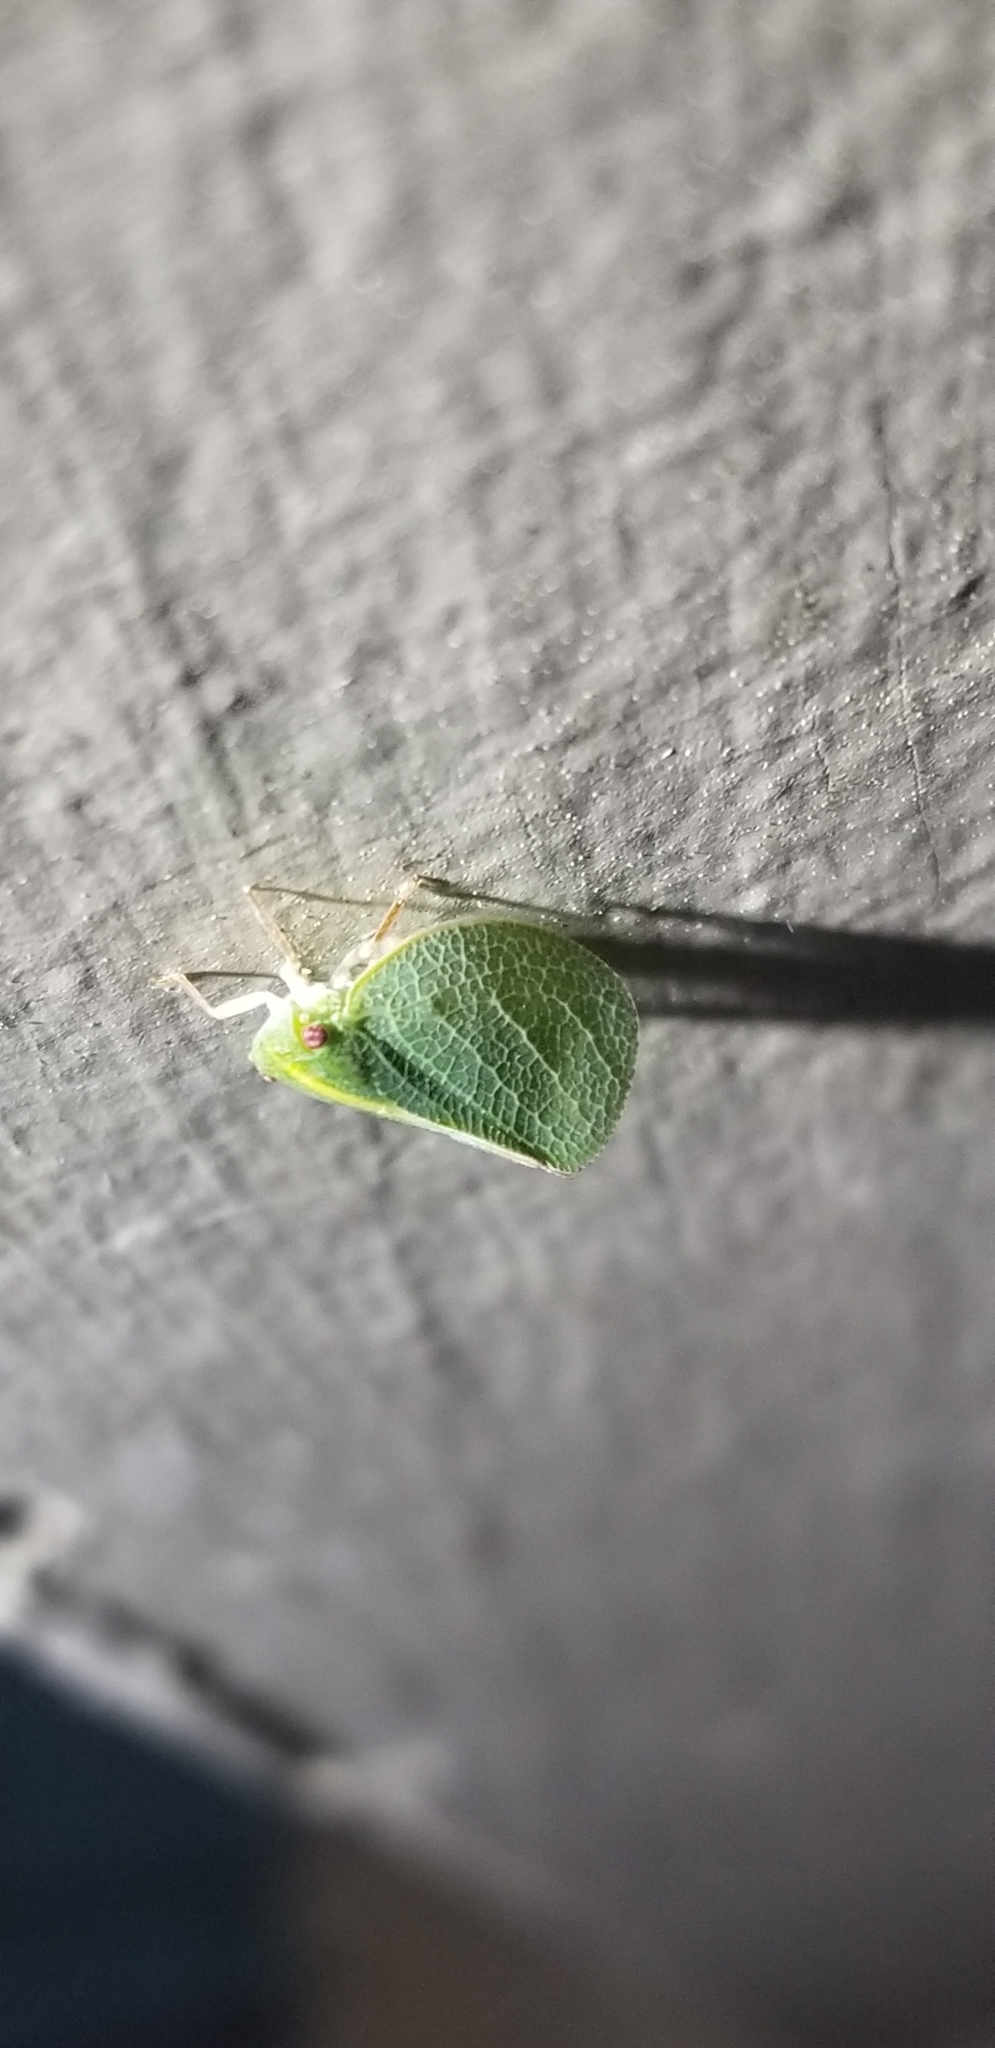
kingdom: Animalia
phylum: Arthropoda
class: Insecta
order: Hemiptera
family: Acanaloniidae
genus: Acanalonia
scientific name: Acanalonia servillei
